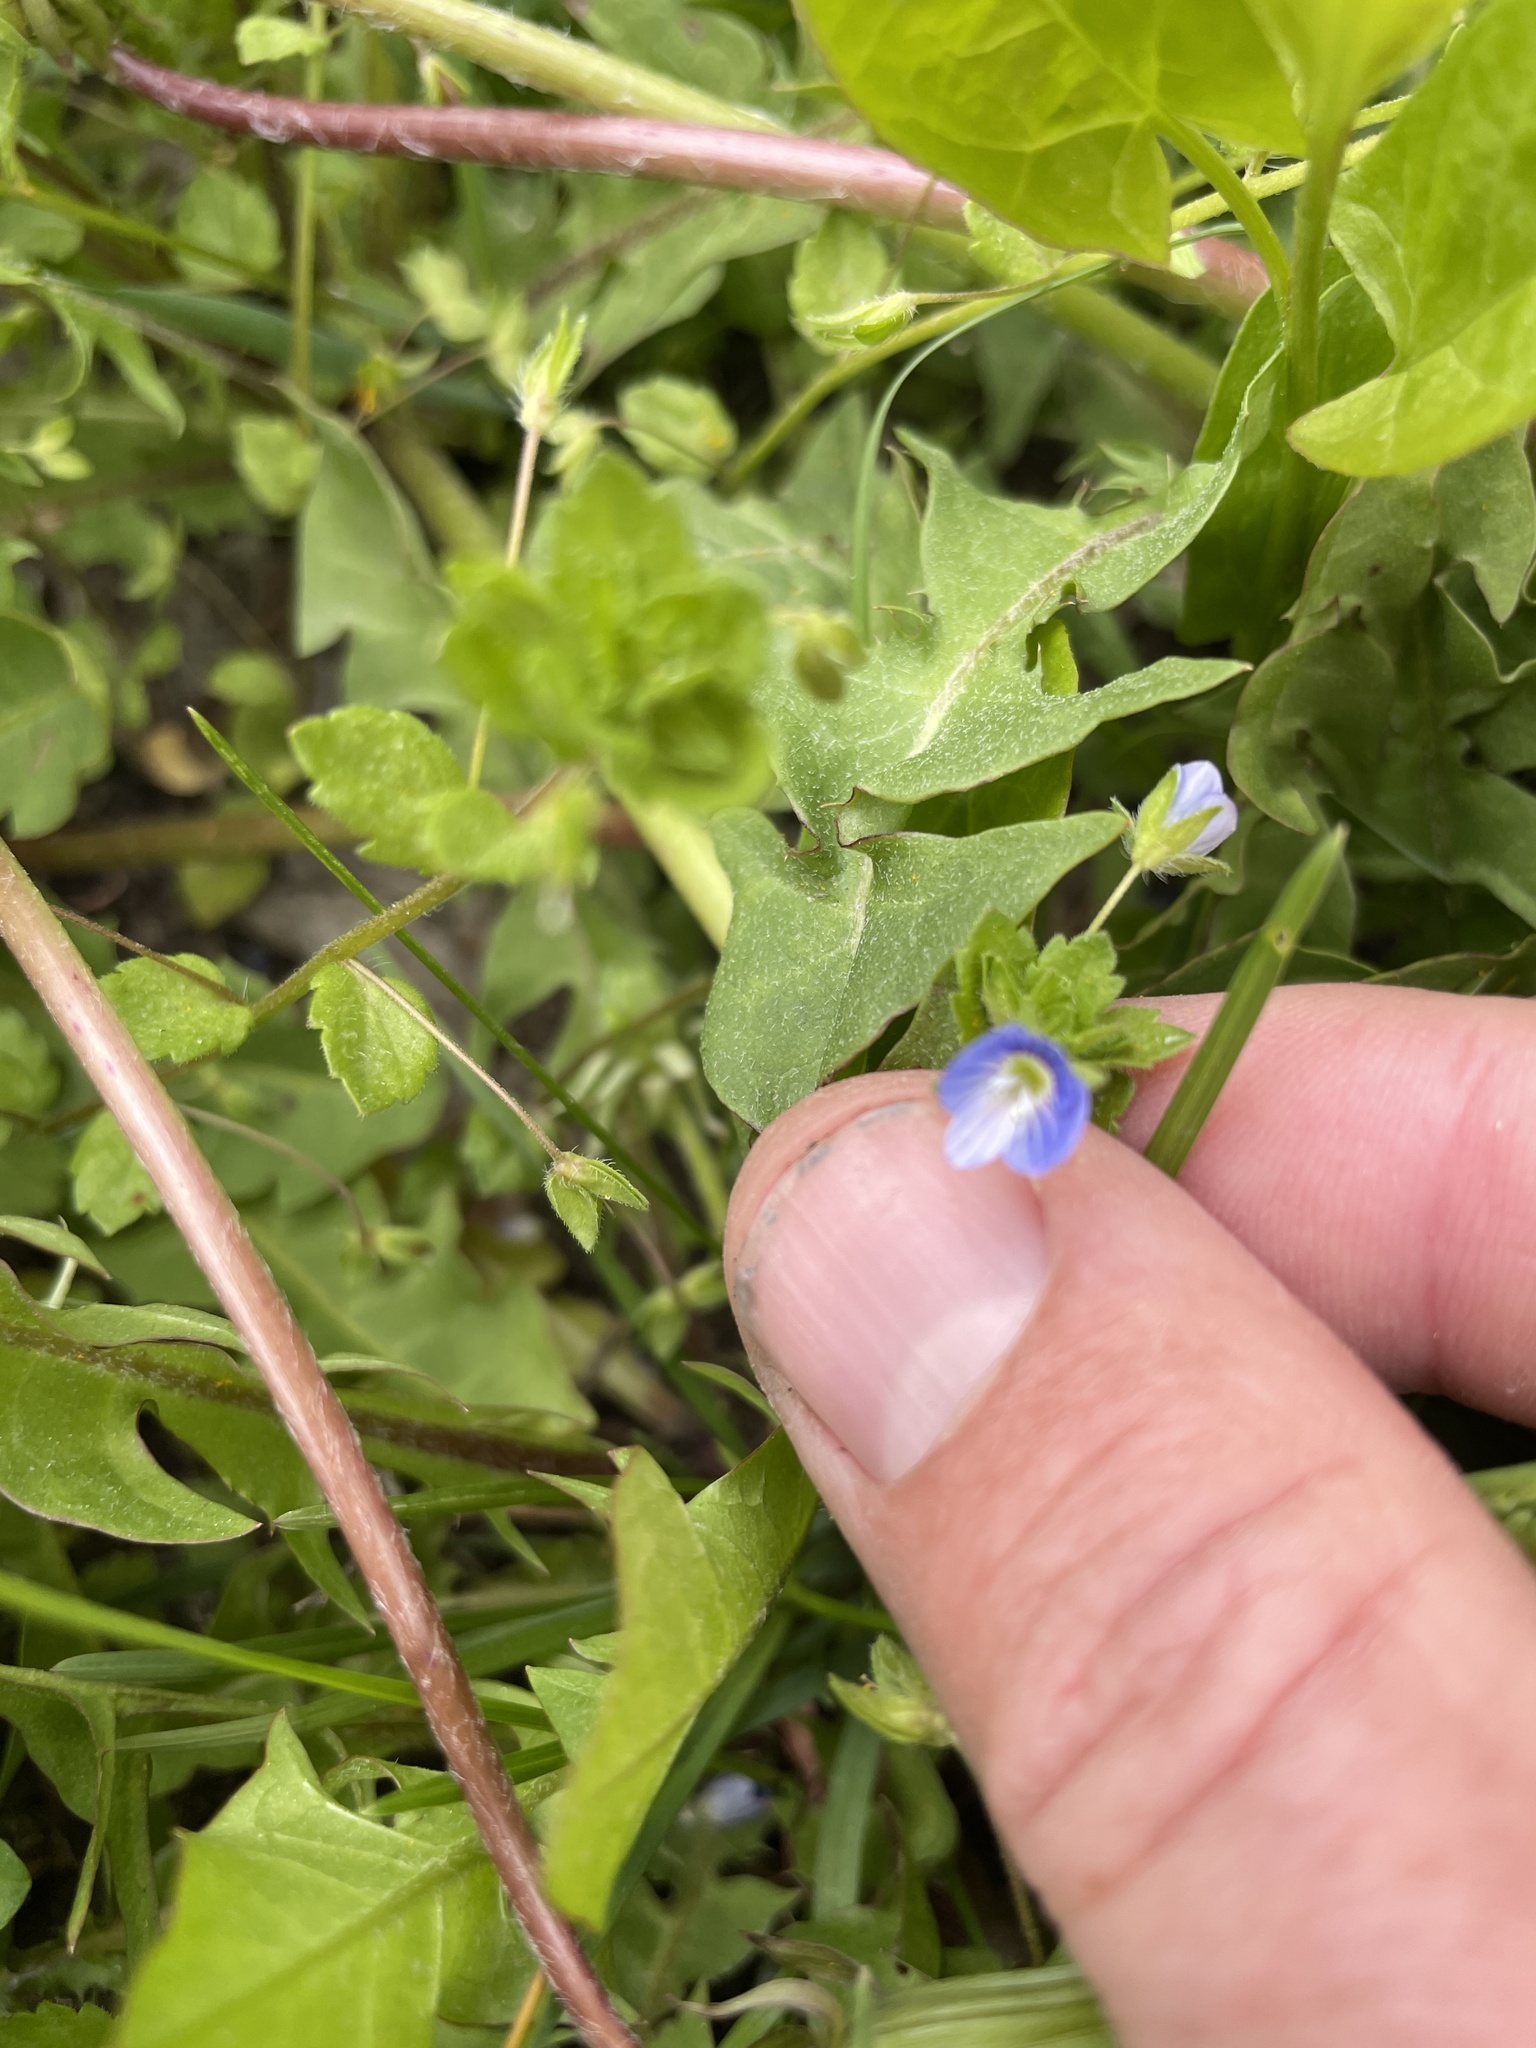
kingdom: Plantae
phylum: Tracheophyta
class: Magnoliopsida
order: Lamiales
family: Plantaginaceae
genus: Veronica
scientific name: Veronica persica
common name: Common field-speedwell
